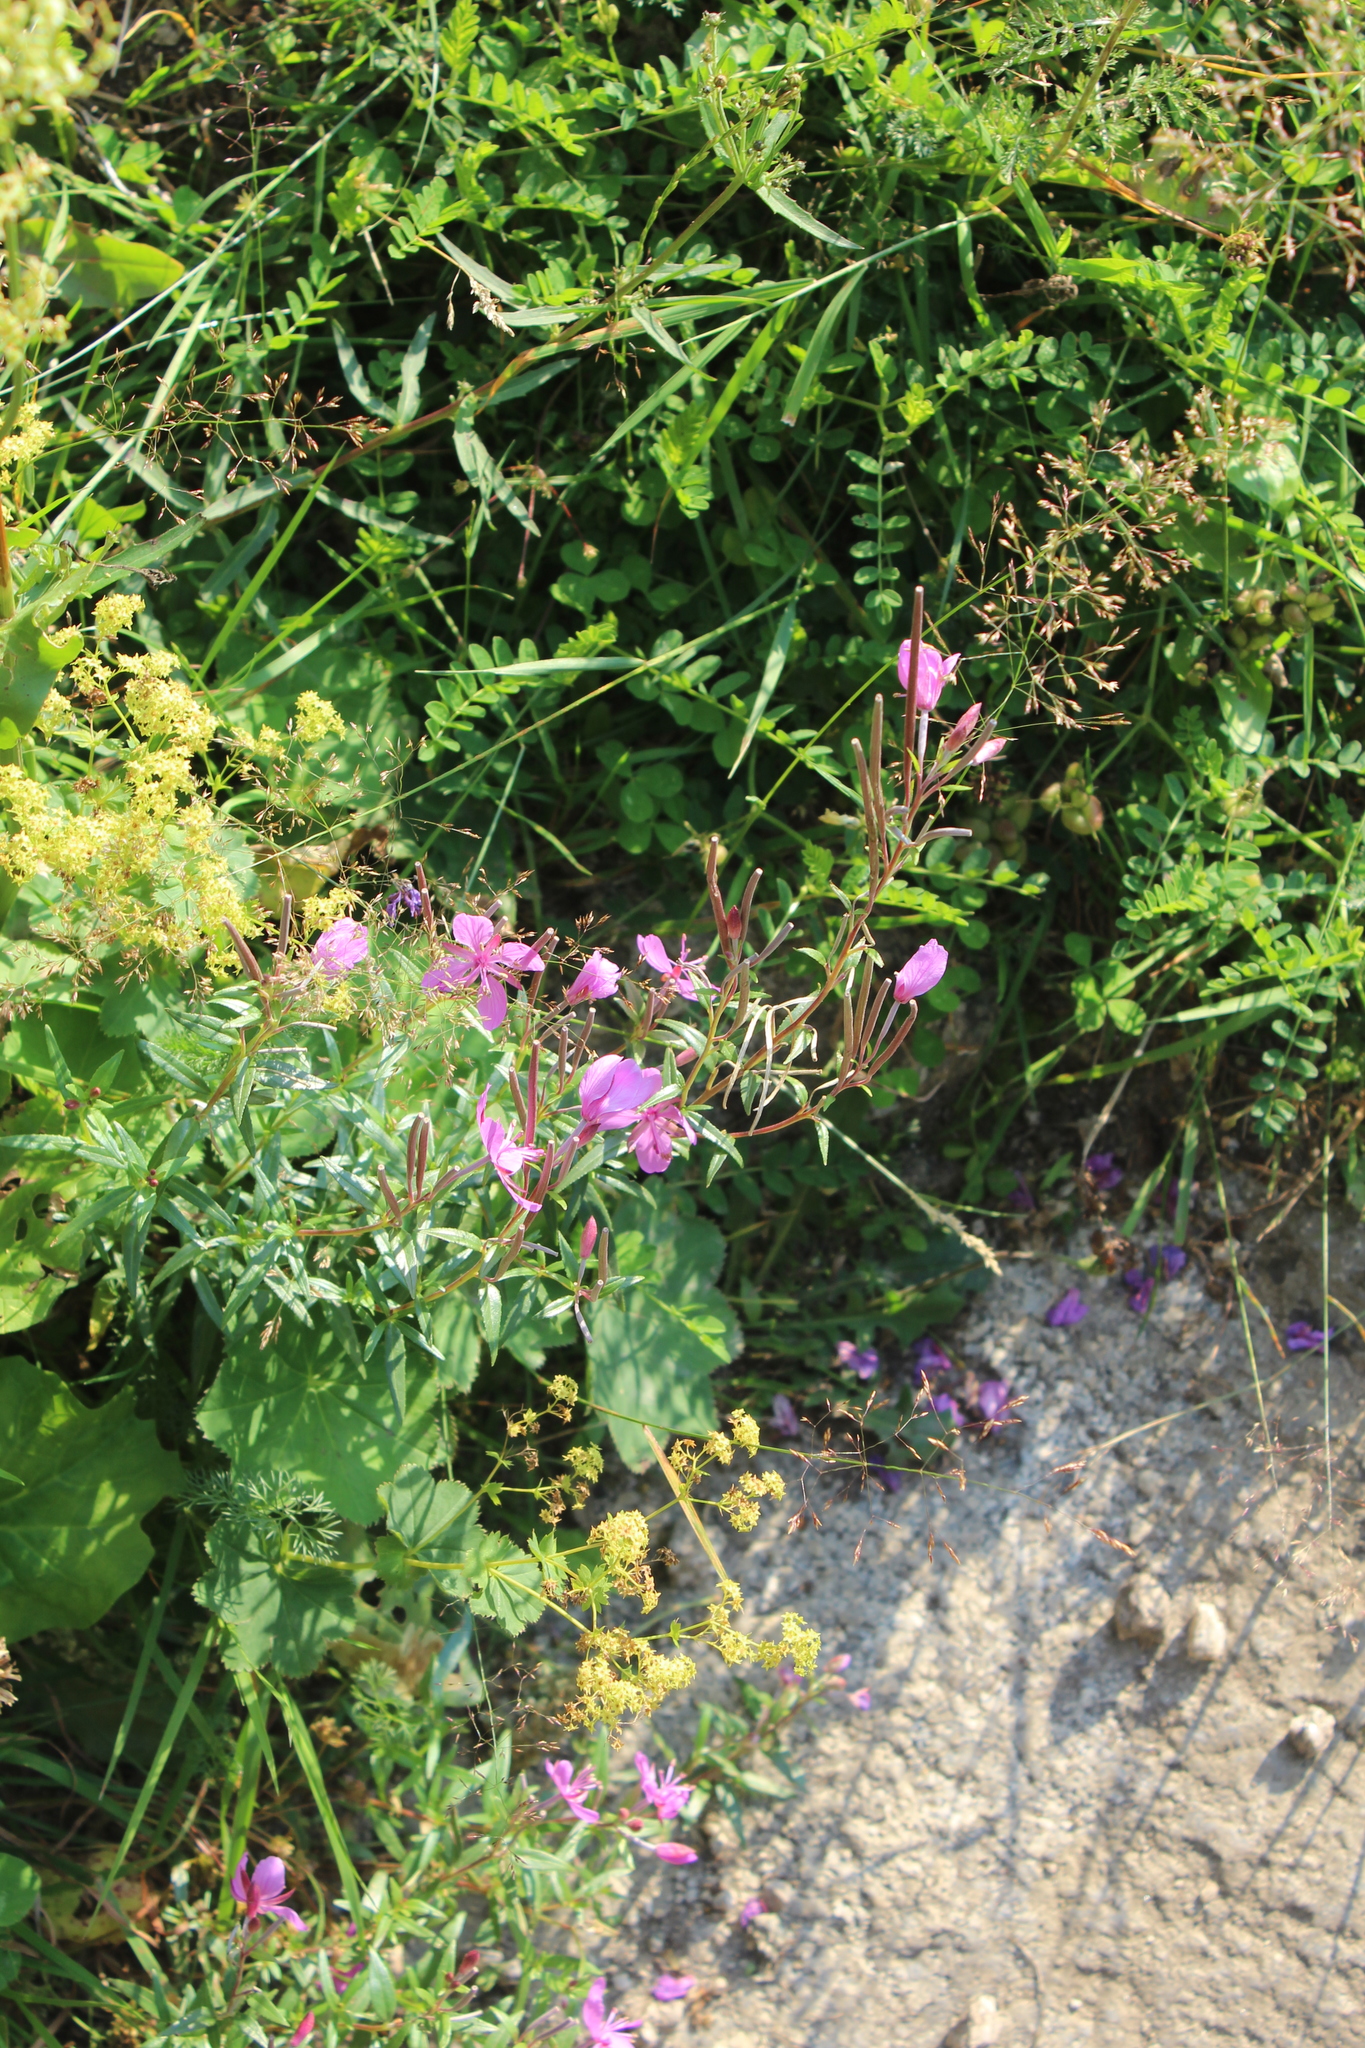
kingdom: Plantae
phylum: Tracheophyta
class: Magnoliopsida
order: Myrtales
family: Onagraceae
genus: Chamaenerion
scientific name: Chamaenerion colchicum
